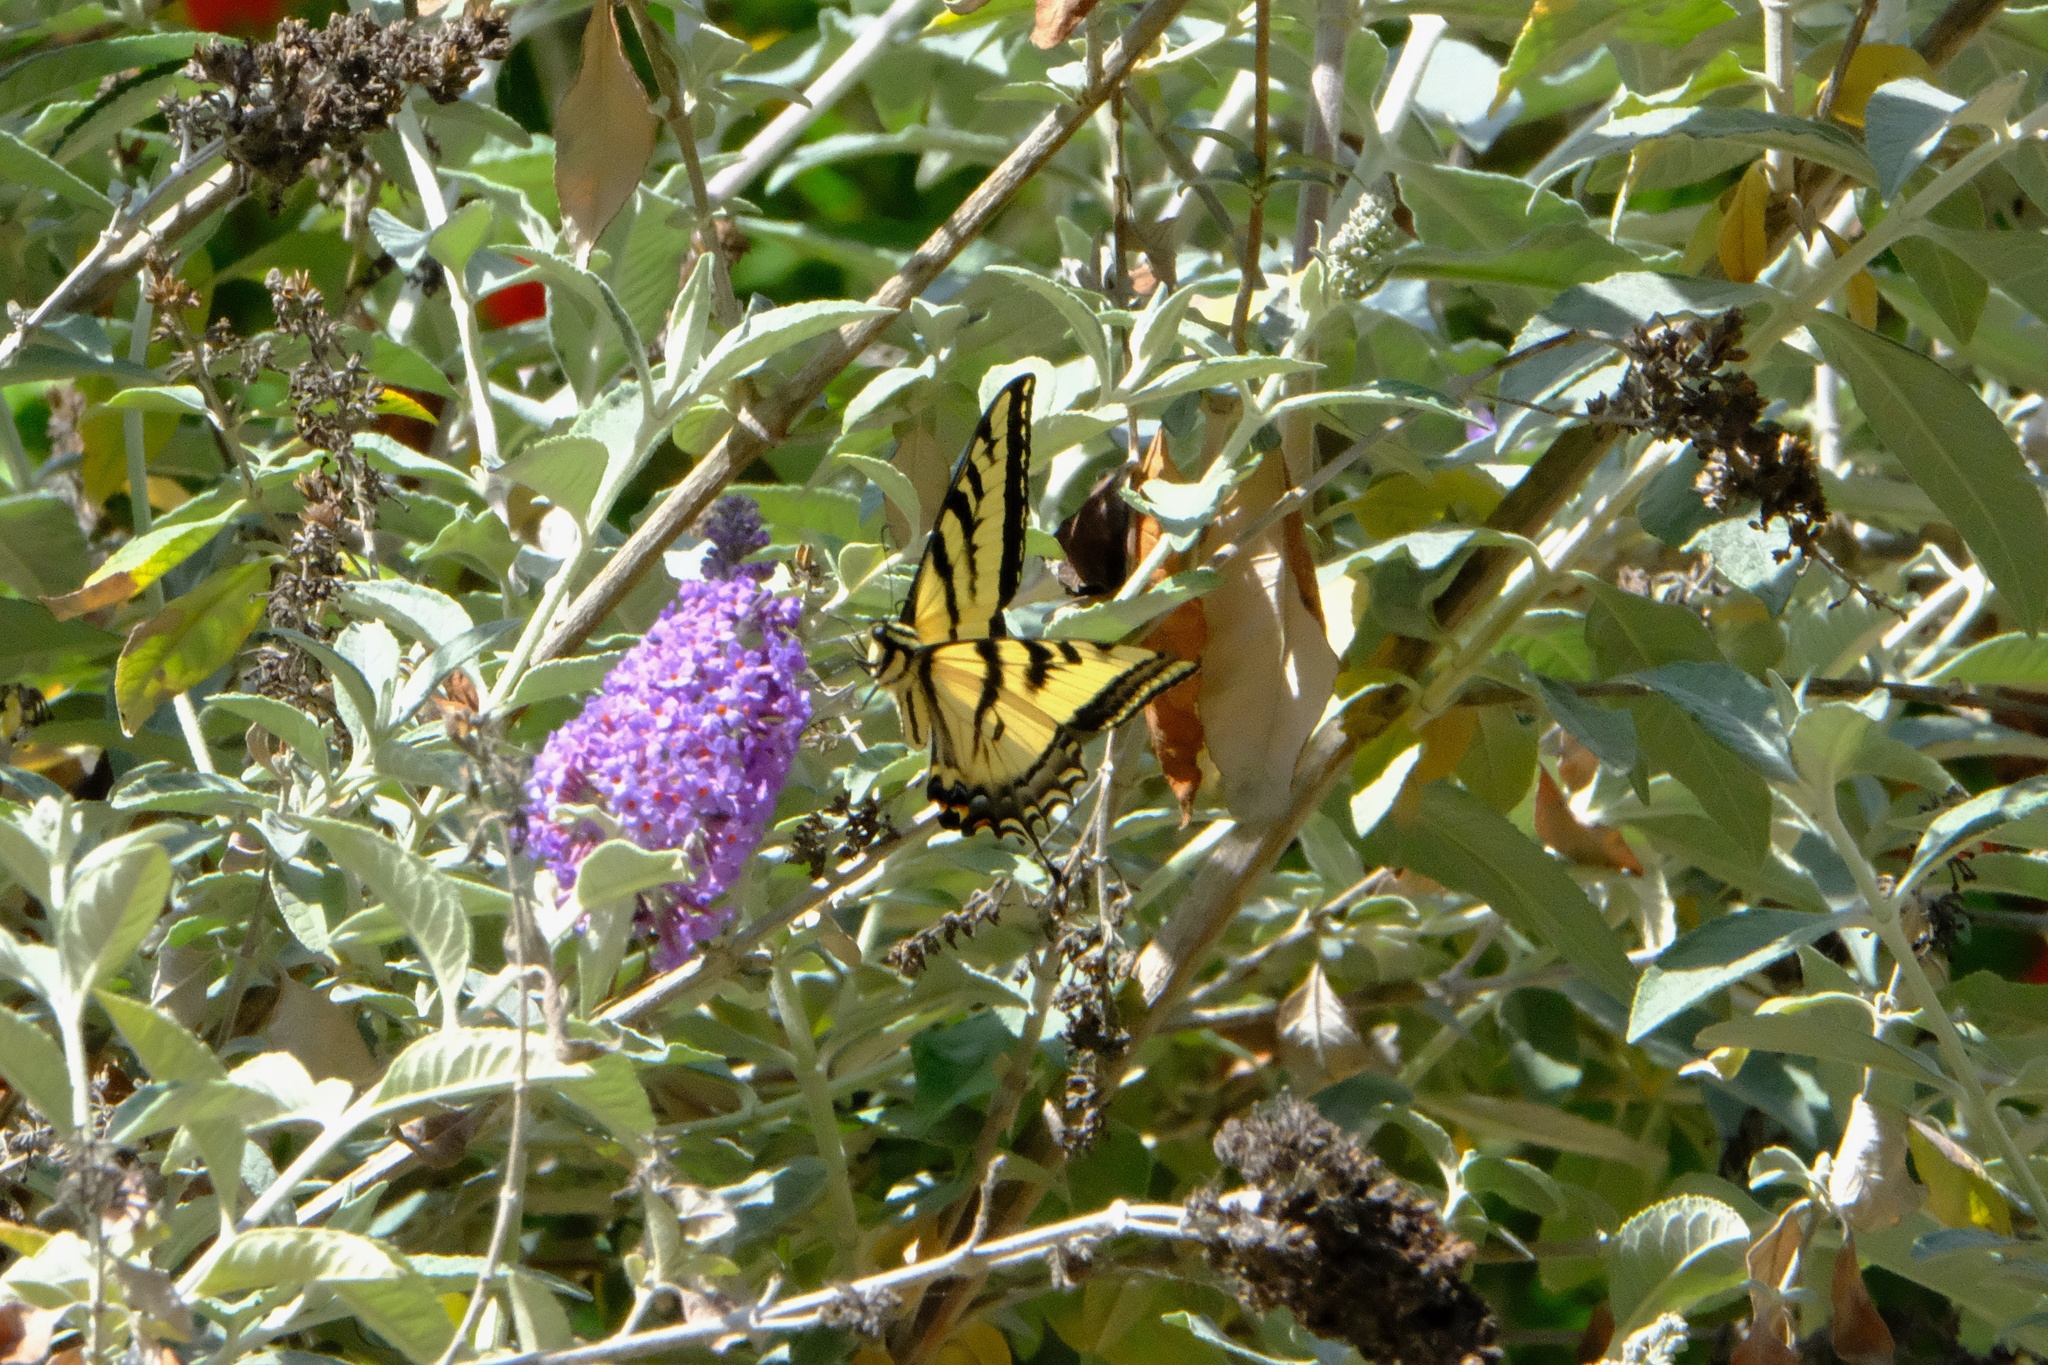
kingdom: Animalia
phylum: Arthropoda
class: Insecta
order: Lepidoptera
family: Papilionidae
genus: Papilio
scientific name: Papilio rutulus
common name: Western tiger swallowtail
